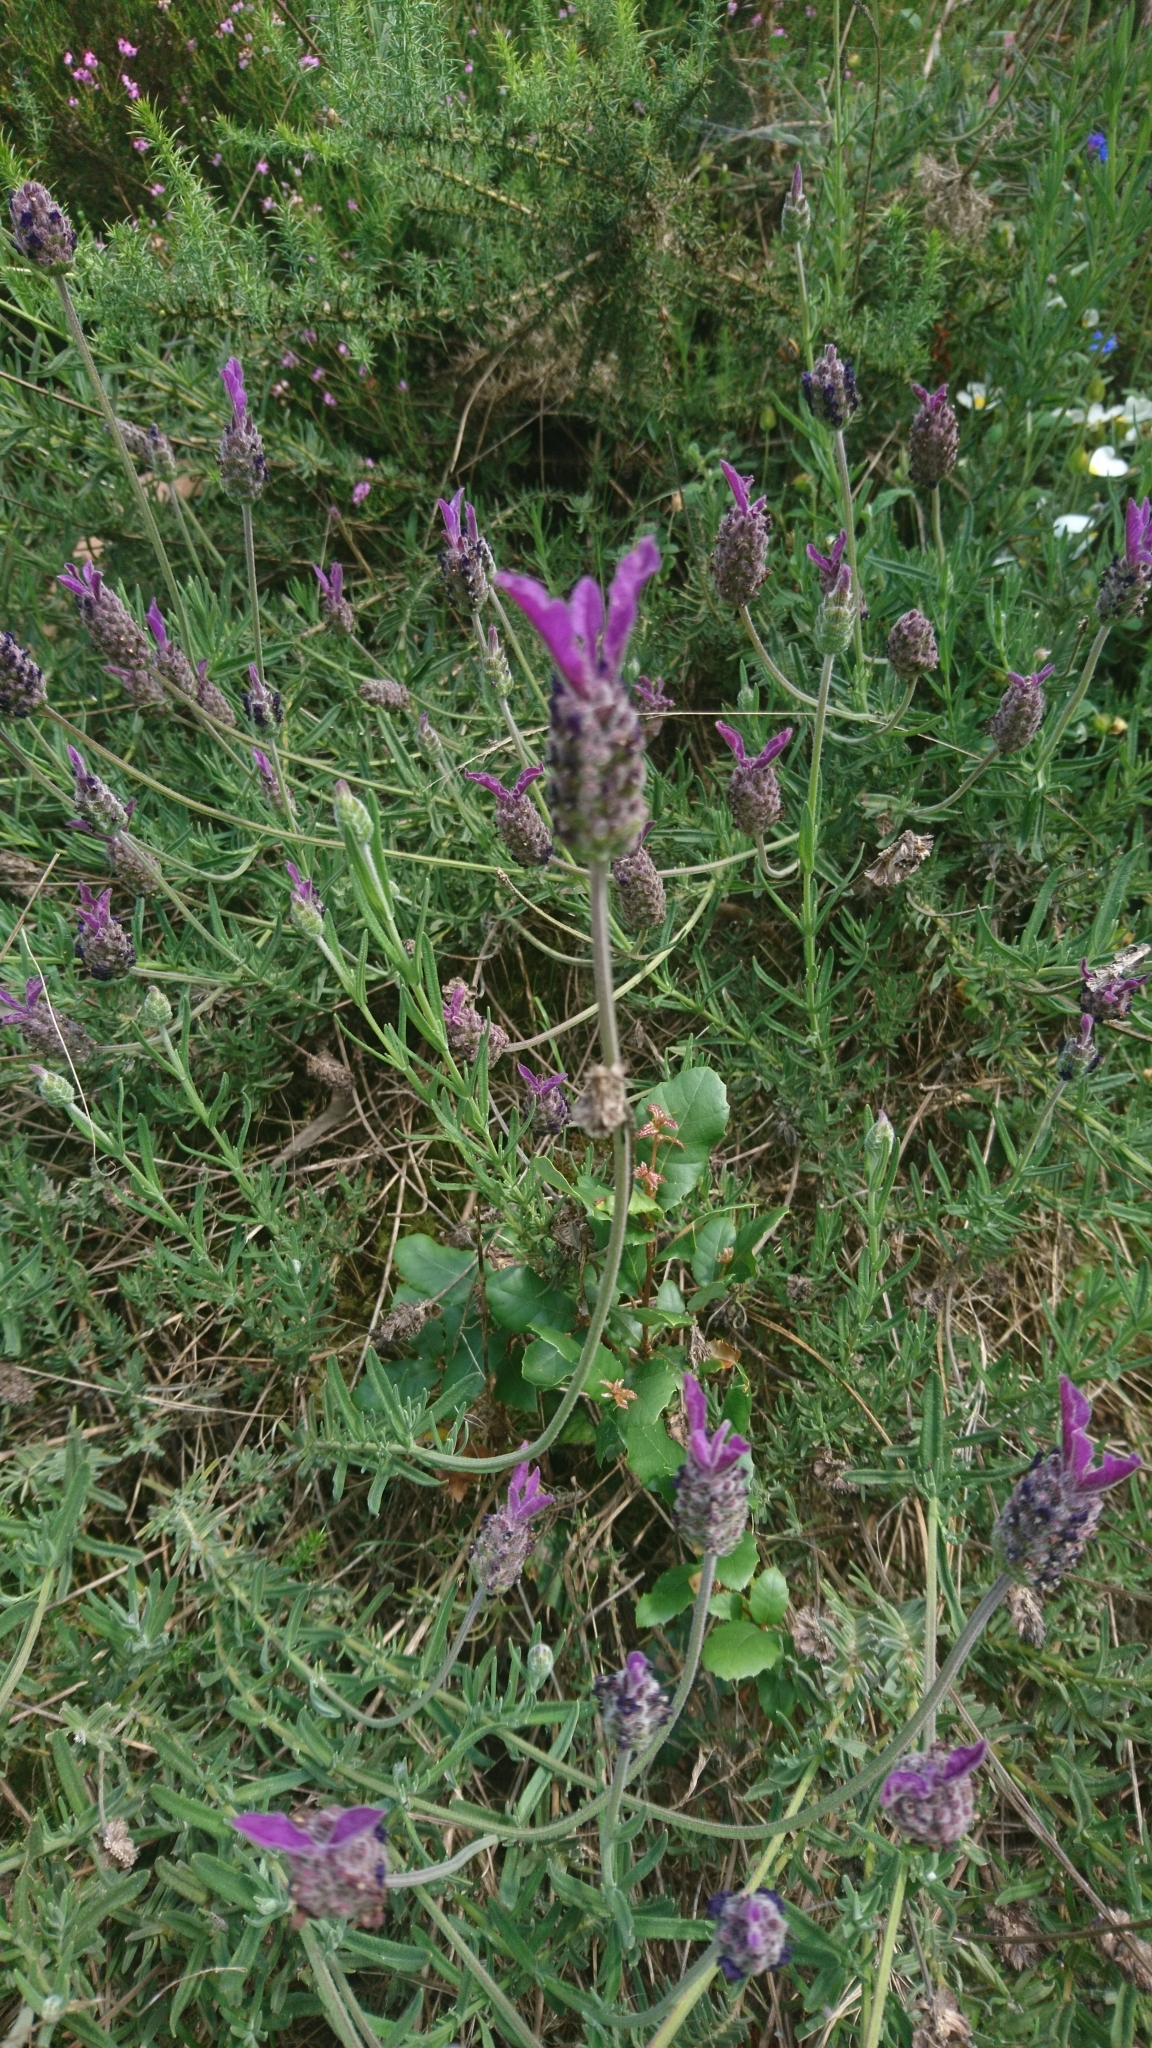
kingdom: Plantae
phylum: Tracheophyta
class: Magnoliopsida
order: Lamiales
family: Lamiaceae
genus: Lavandula
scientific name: Lavandula pedunculata
